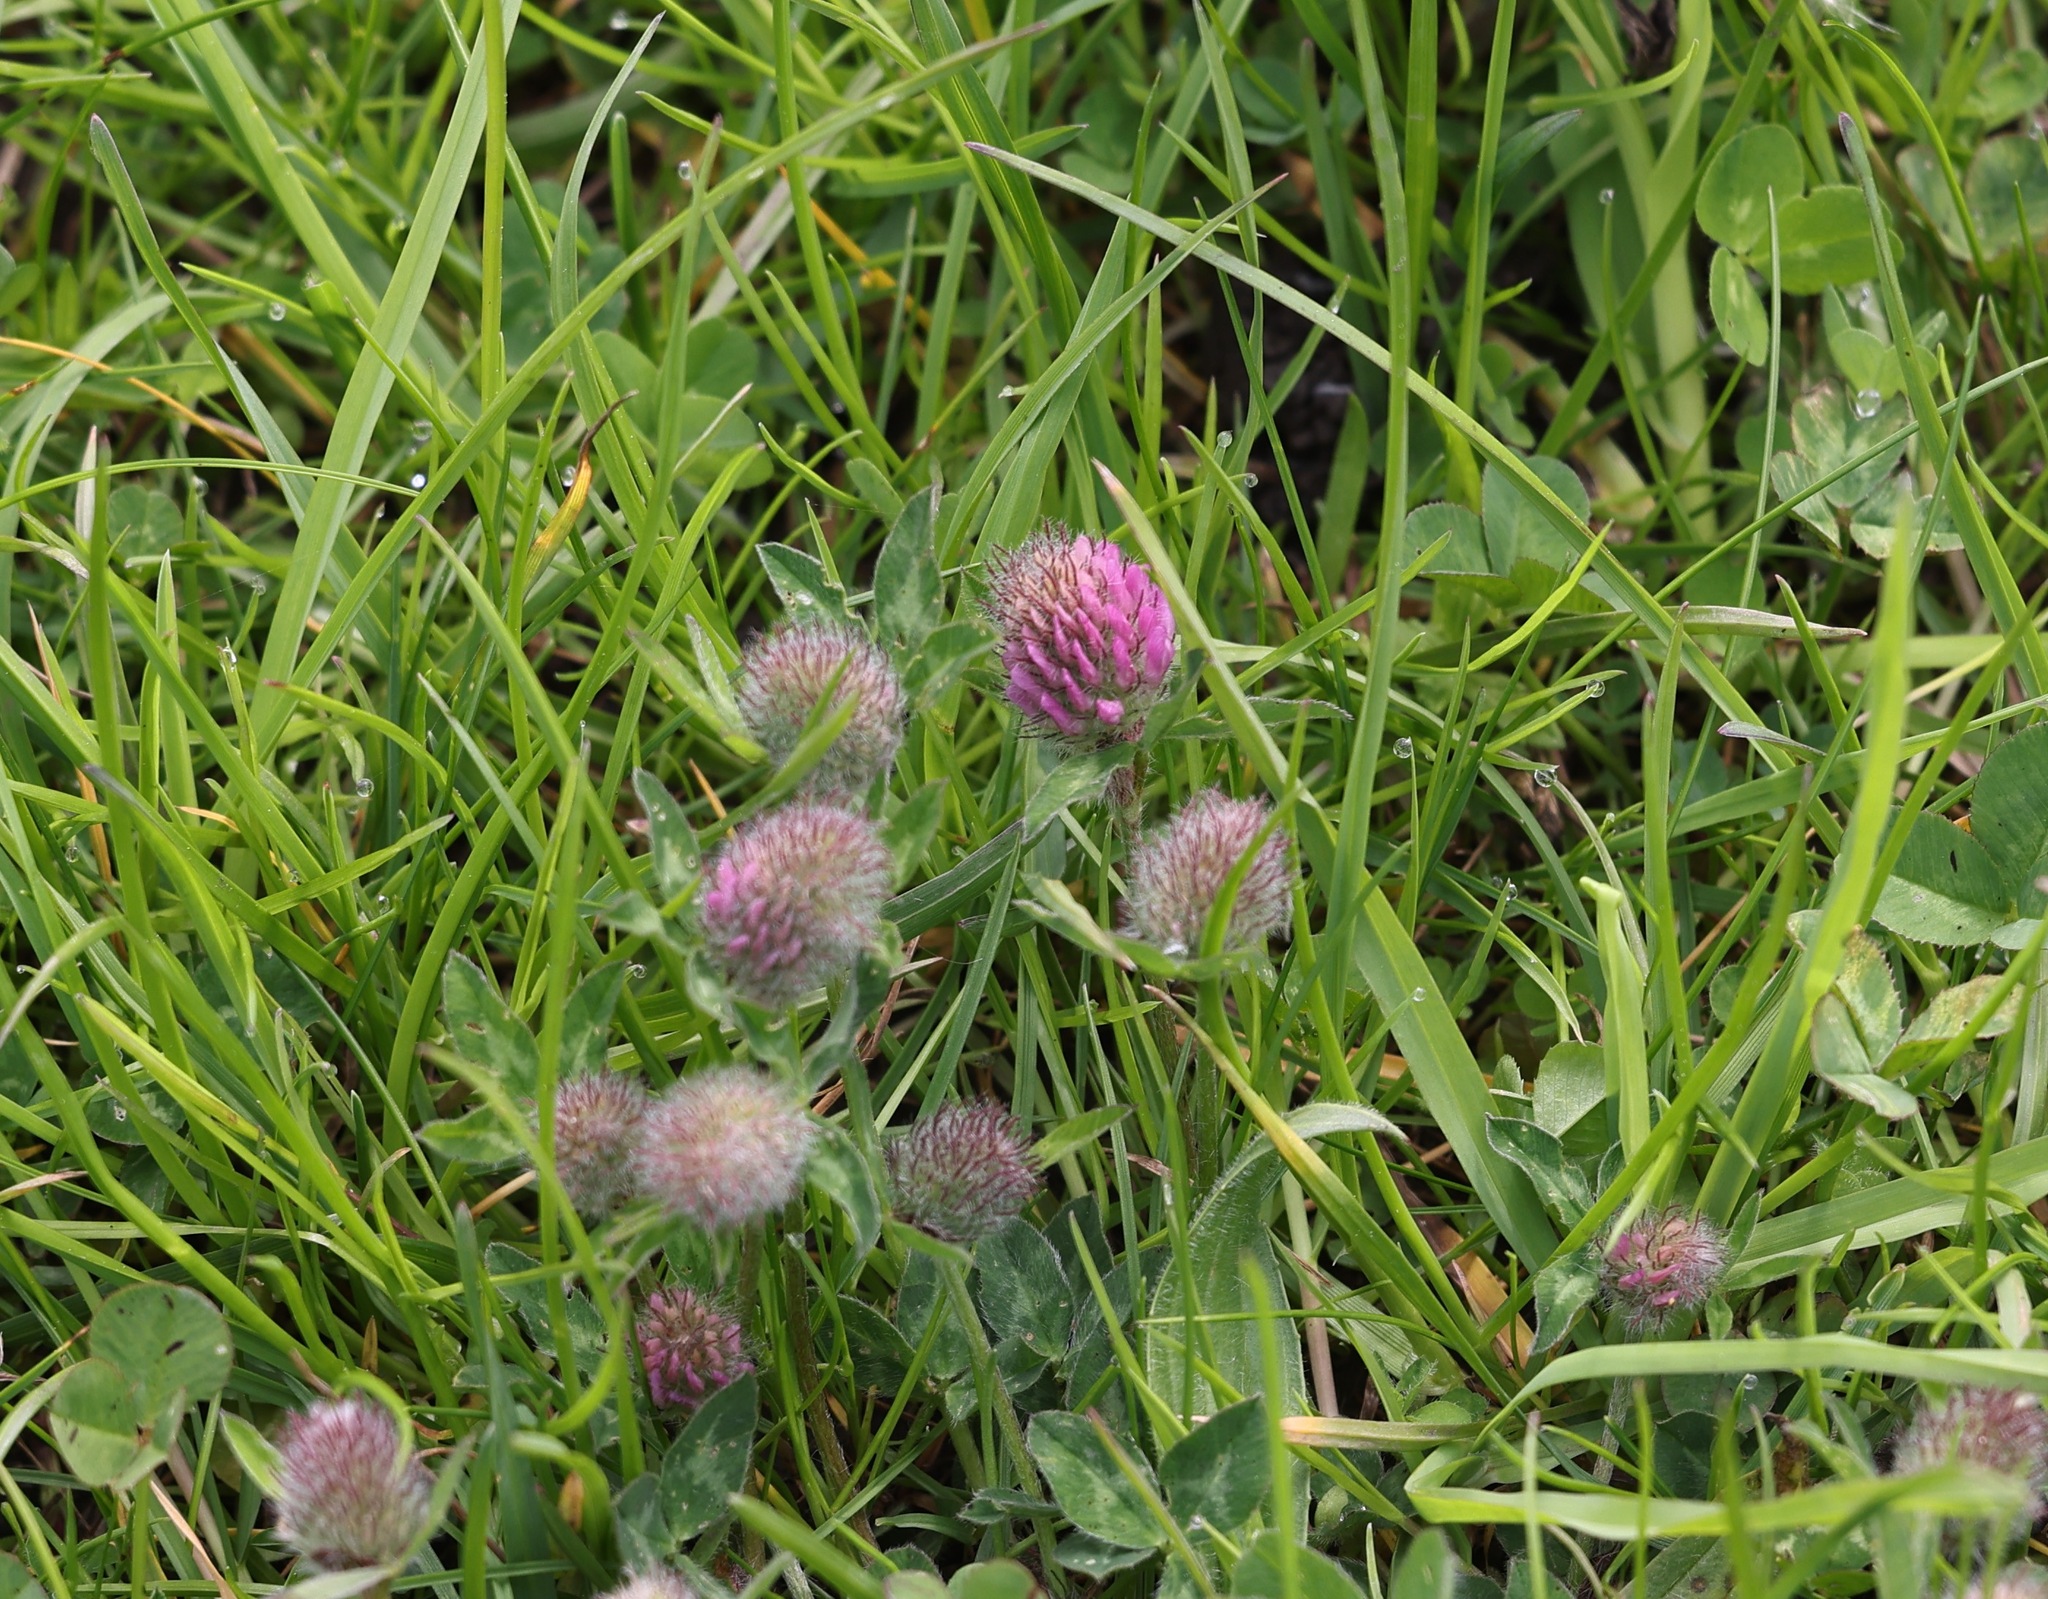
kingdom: Plantae
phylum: Tracheophyta
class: Magnoliopsida
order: Fabales
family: Fabaceae
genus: Trifolium
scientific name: Trifolium pratense
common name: Red clover
